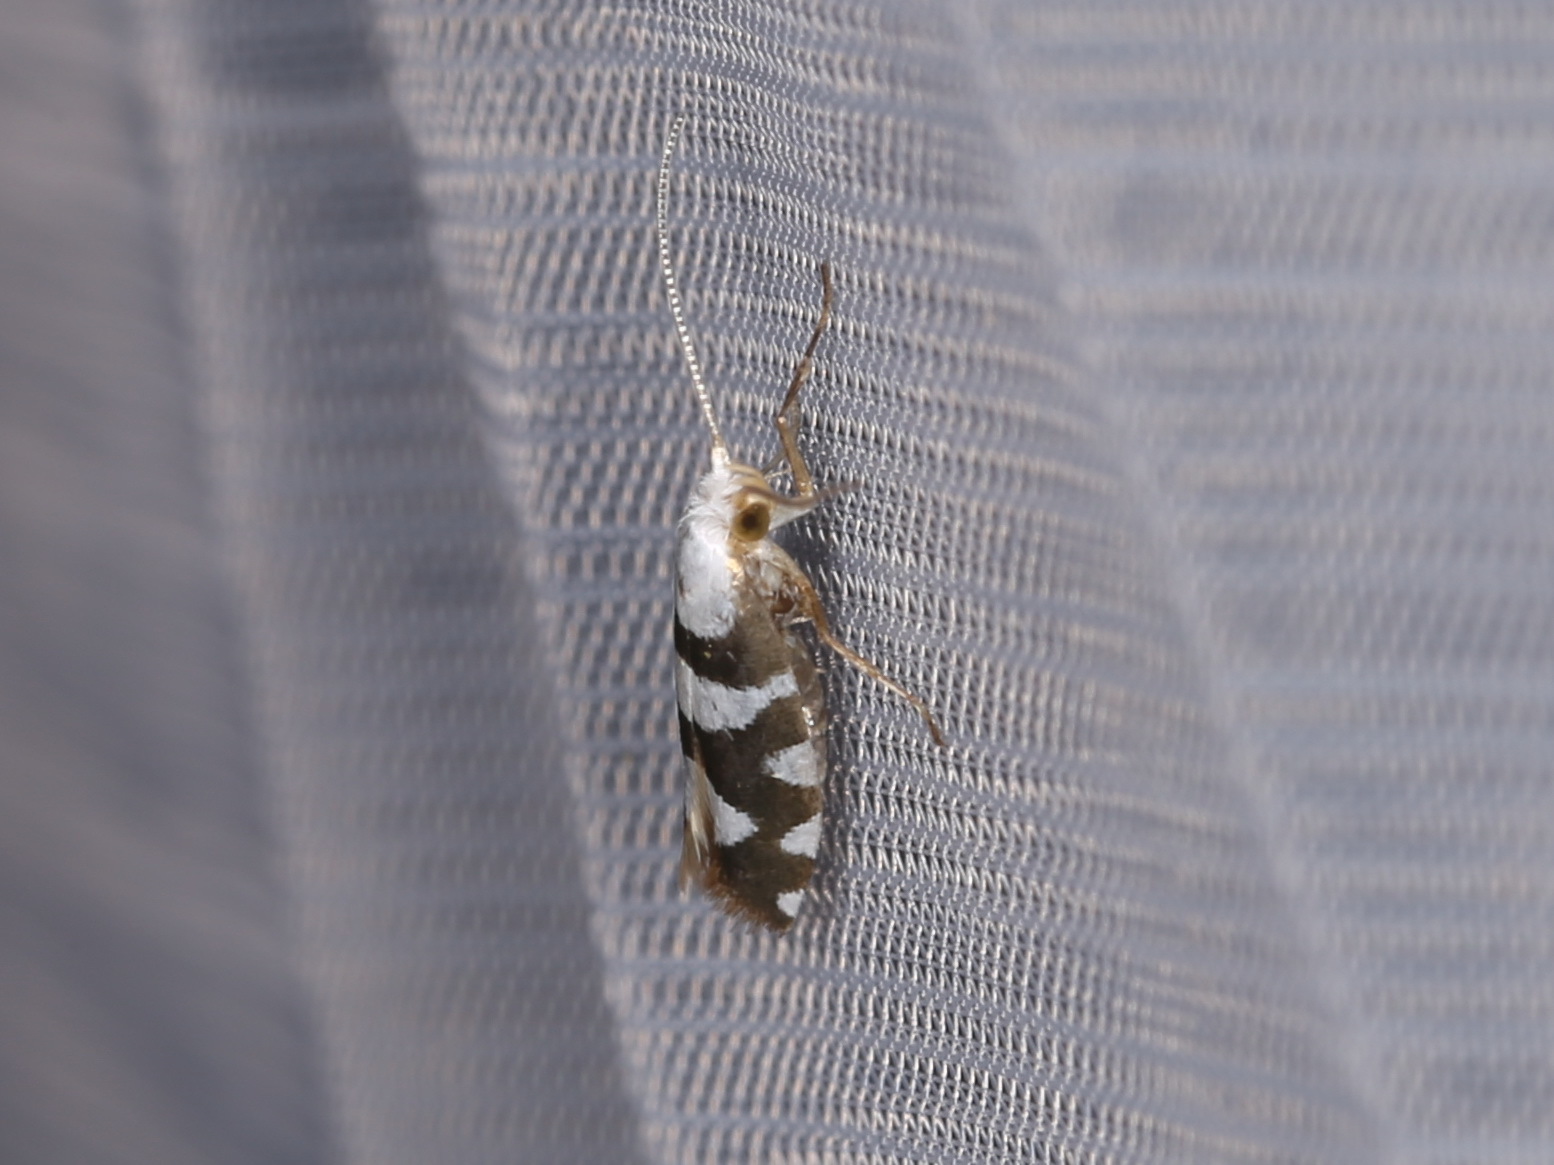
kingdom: Animalia
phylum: Arthropoda
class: Insecta
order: Lepidoptera
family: Argyresthiidae
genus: Argyresthia
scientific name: Argyresthia brockeella
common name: Gold-ribbon argent
